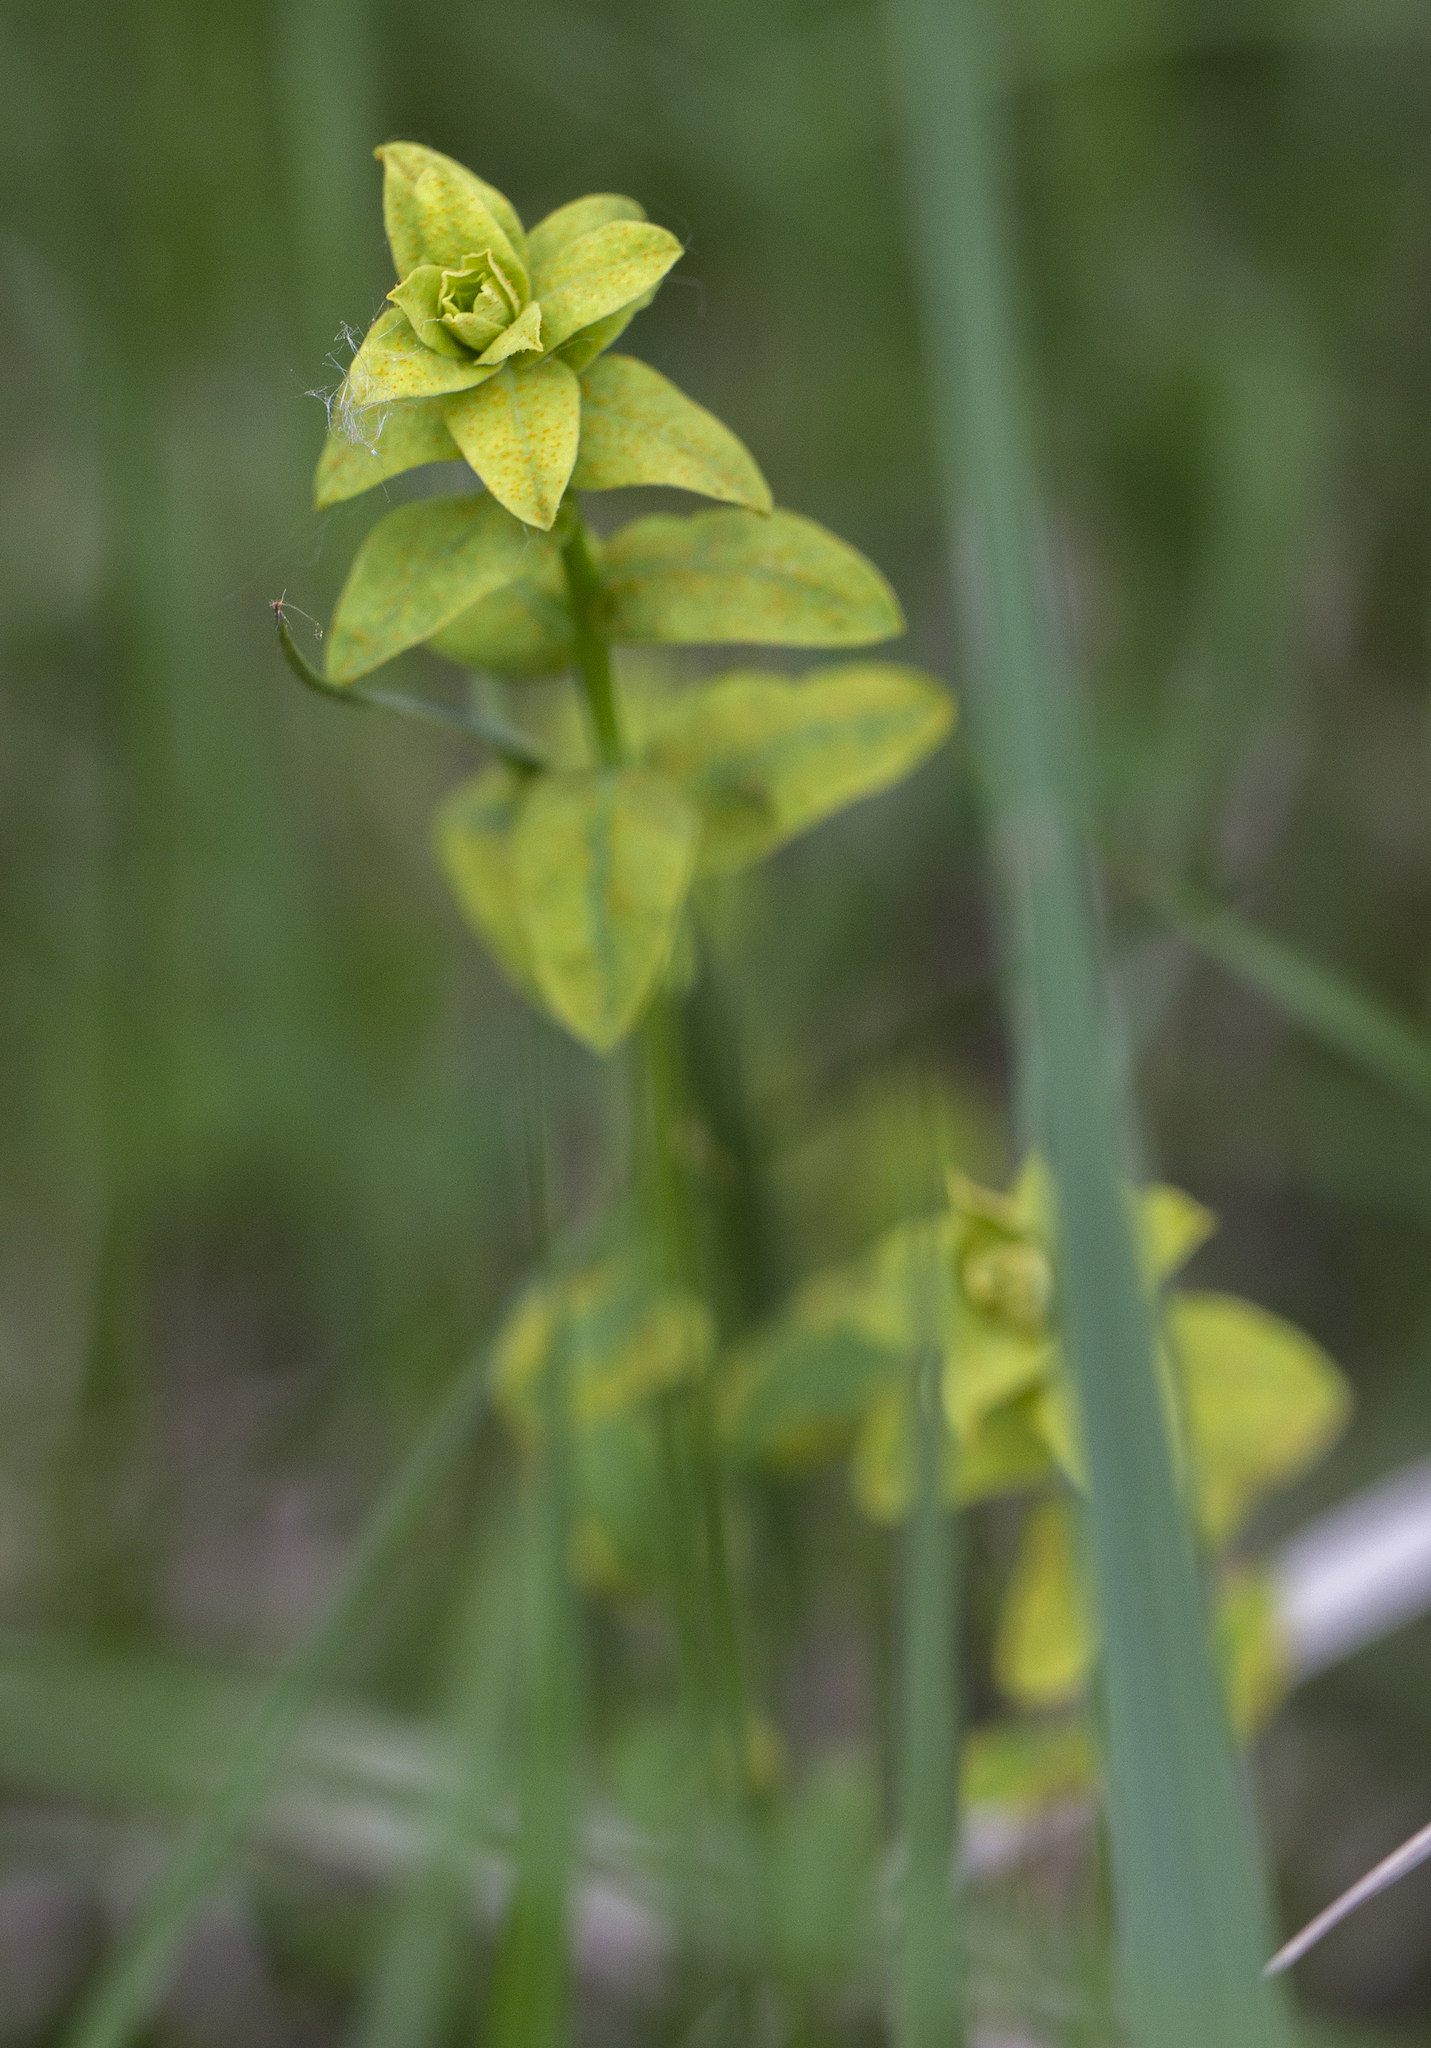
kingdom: Plantae
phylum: Tracheophyta
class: Magnoliopsida
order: Malpighiales
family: Euphorbiaceae
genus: Euphorbia
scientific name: Euphorbia virgata
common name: Leafy spurge
